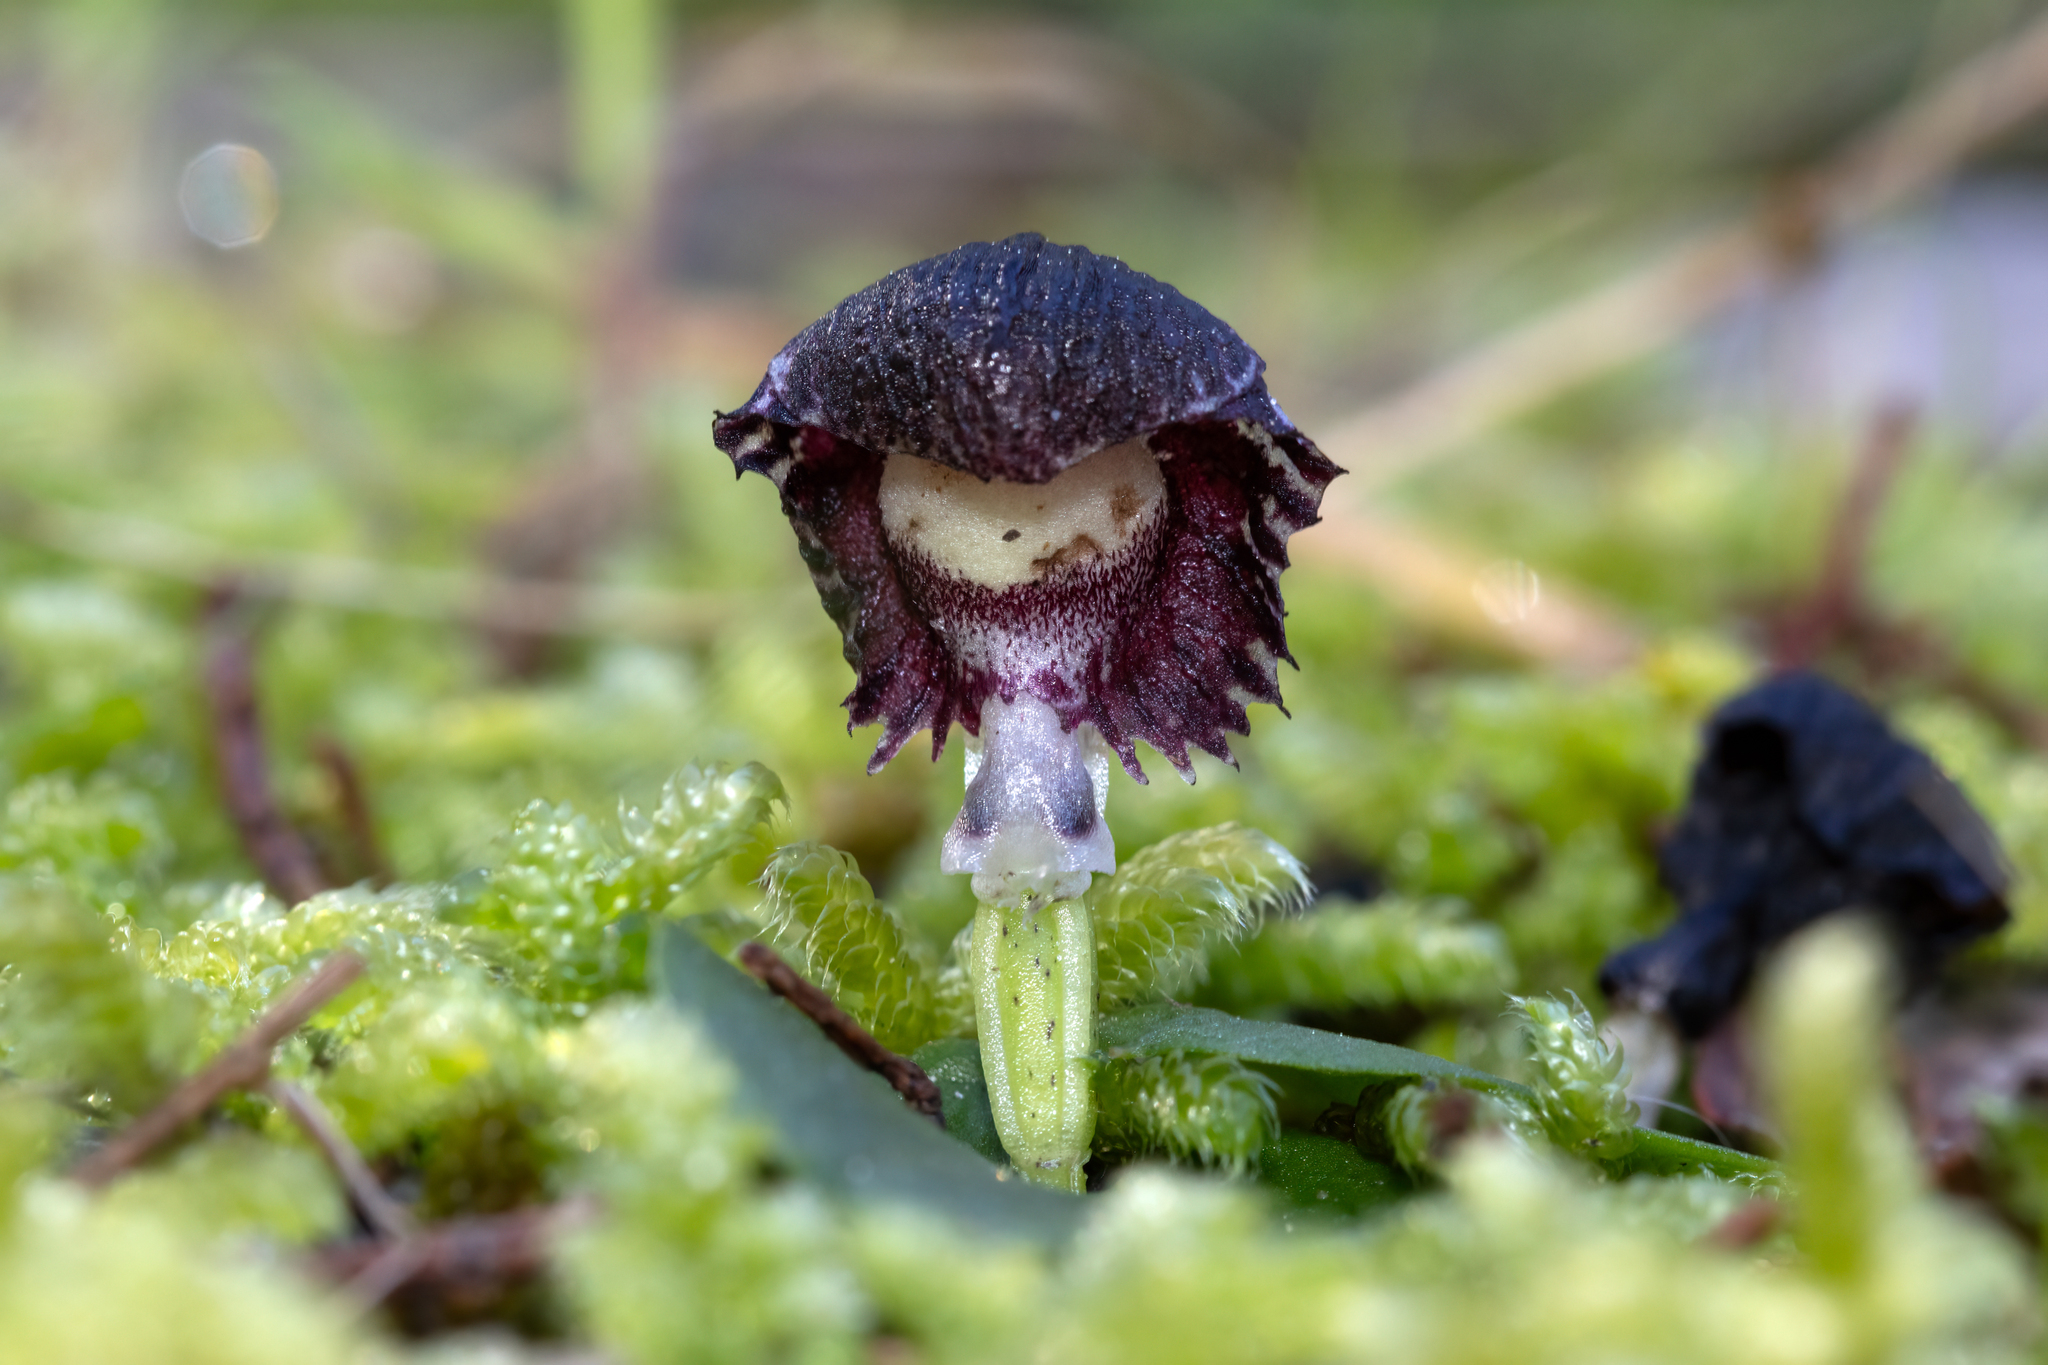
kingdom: Plantae
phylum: Tracheophyta
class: Liliopsida
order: Asparagales
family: Orchidaceae
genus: Corybas
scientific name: Corybas diemenicus
